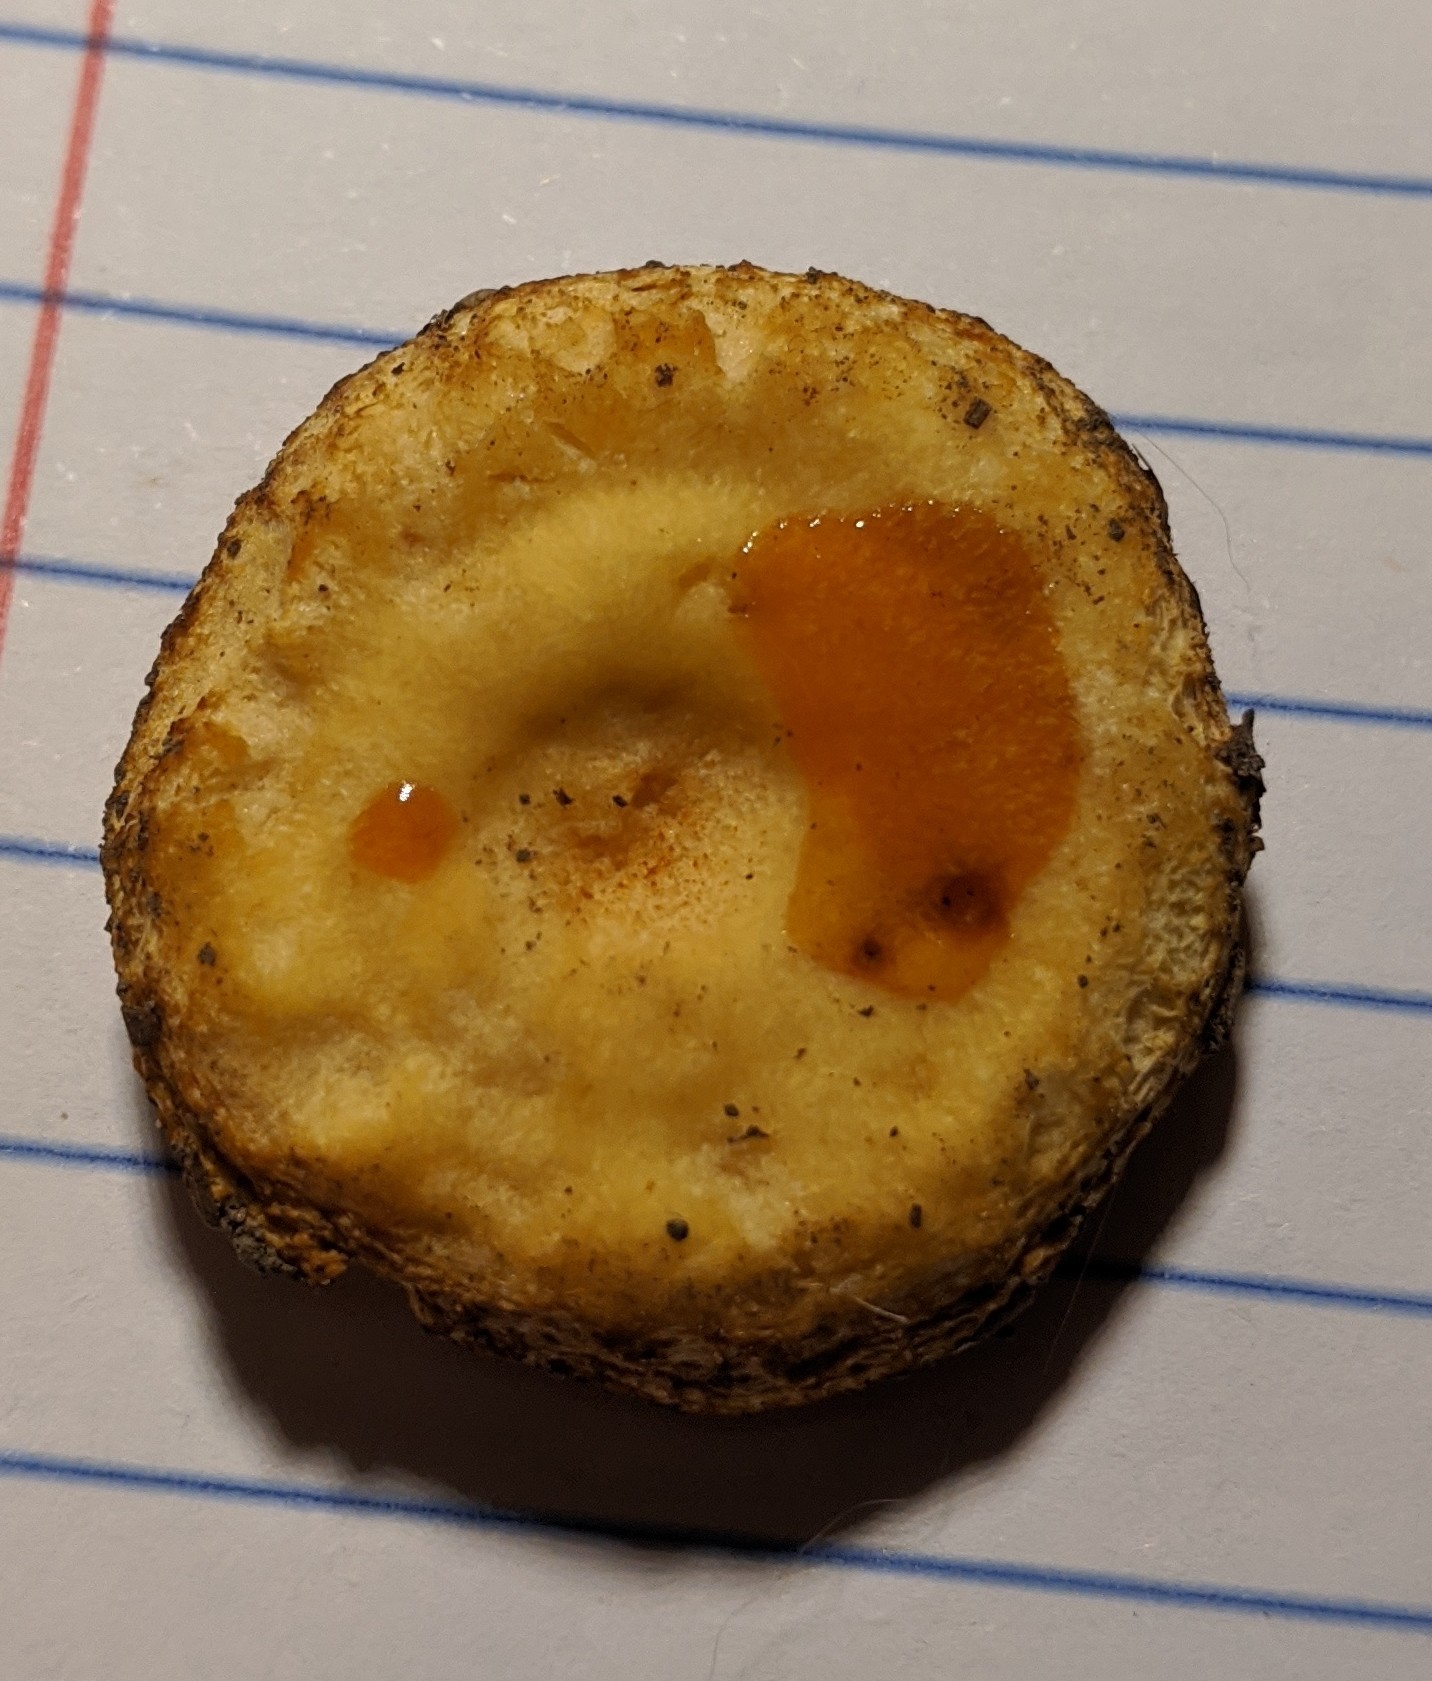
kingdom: Fungi
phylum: Basidiomycota
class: Agaricomycetes
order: Russulales
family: Russulaceae
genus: Russula
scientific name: Russula earlei
